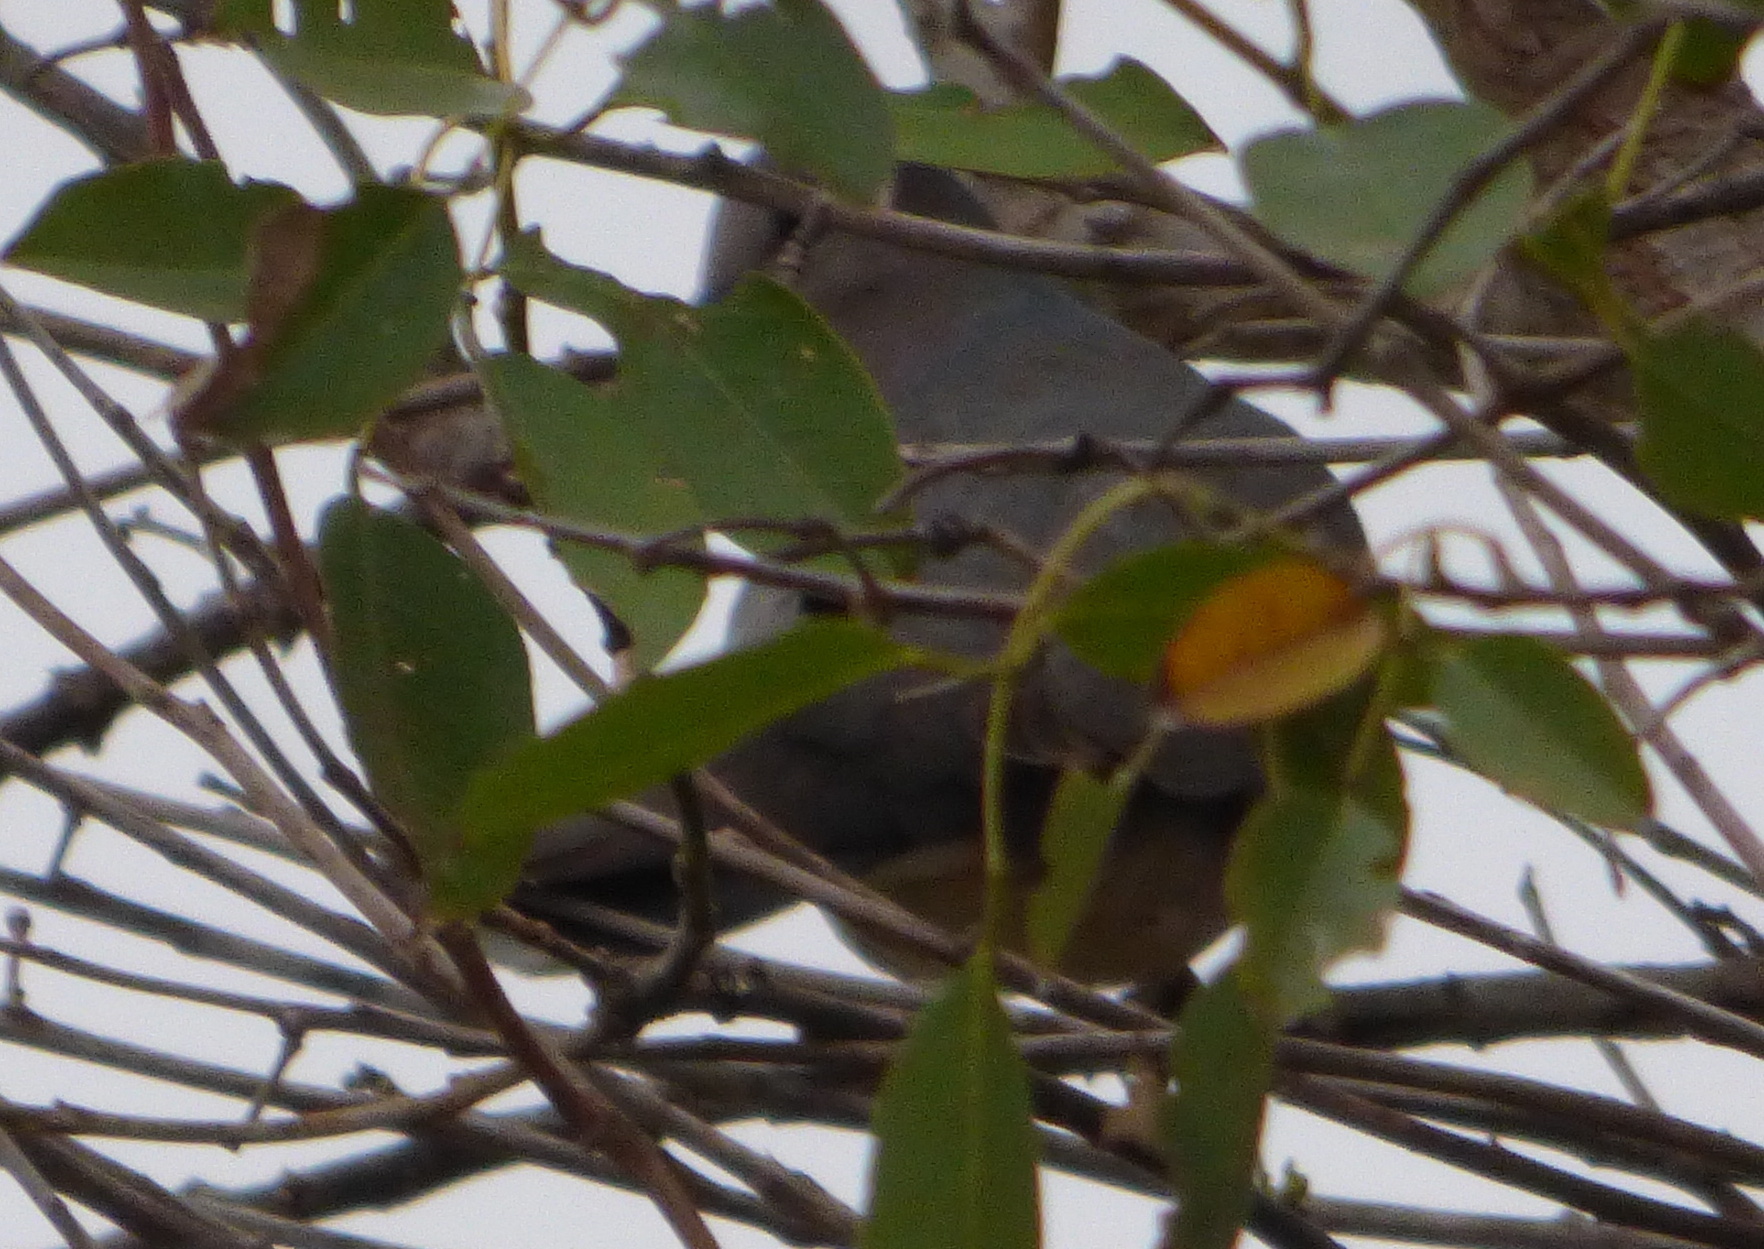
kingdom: Animalia
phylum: Chordata
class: Aves
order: Columbiformes
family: Columbidae
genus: Leptotila
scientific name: Leptotila verreauxi
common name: White-tipped dove
